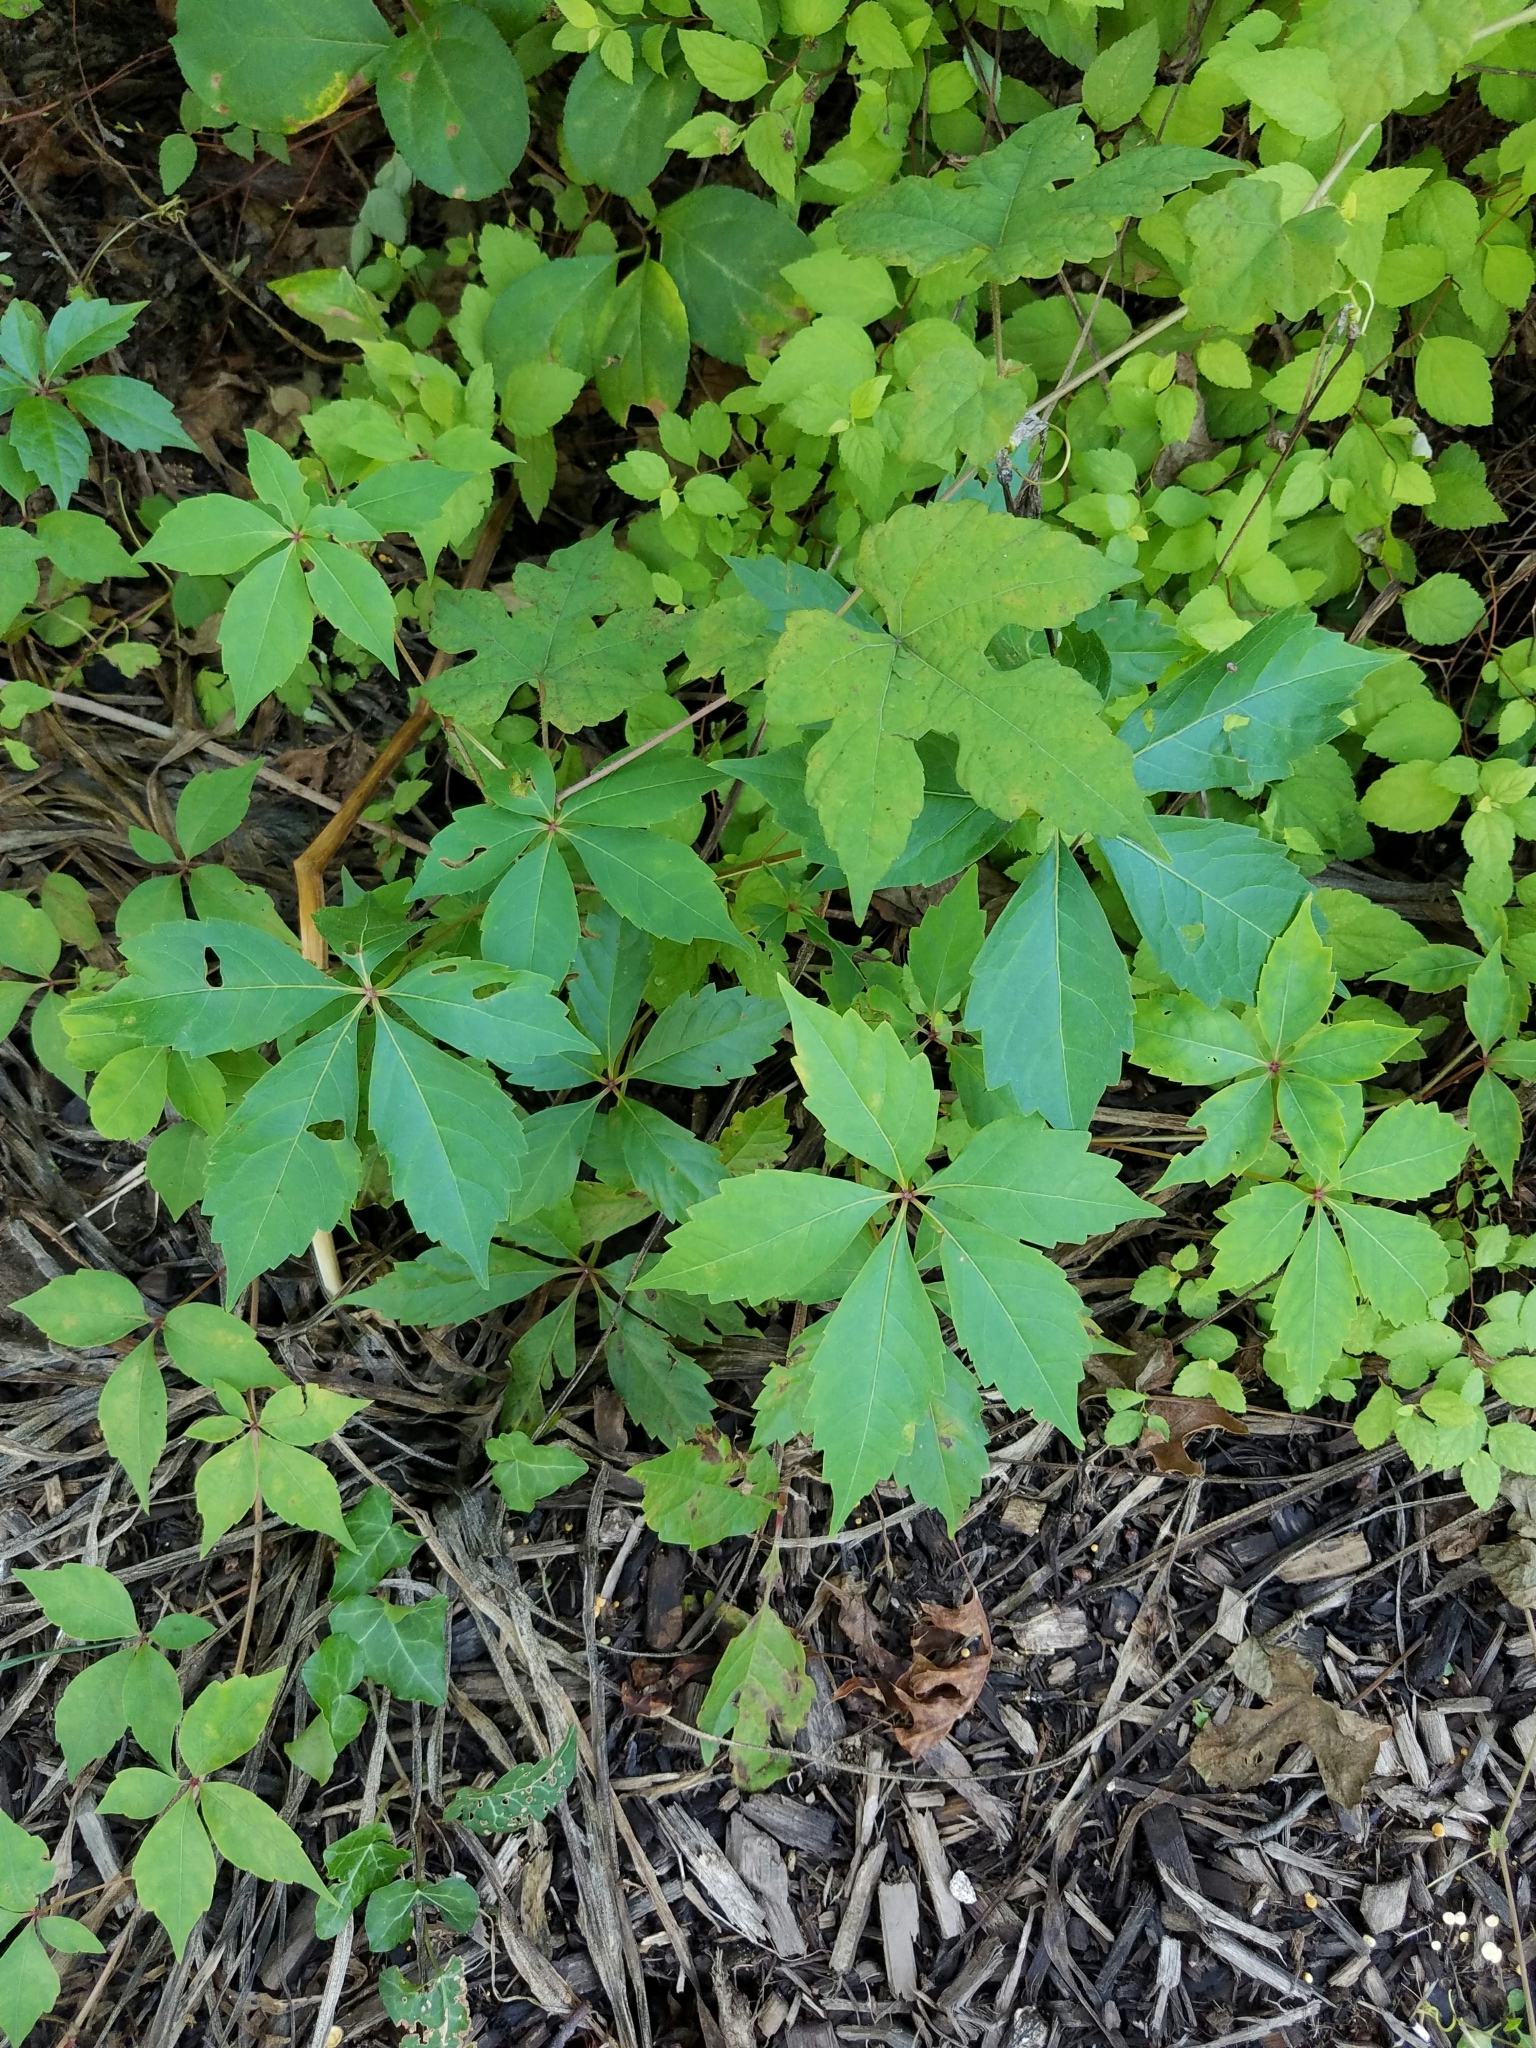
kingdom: Plantae
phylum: Tracheophyta
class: Magnoliopsida
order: Vitales
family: Vitaceae
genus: Parthenocissus
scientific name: Parthenocissus quinquefolia
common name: Virginia-creeper
